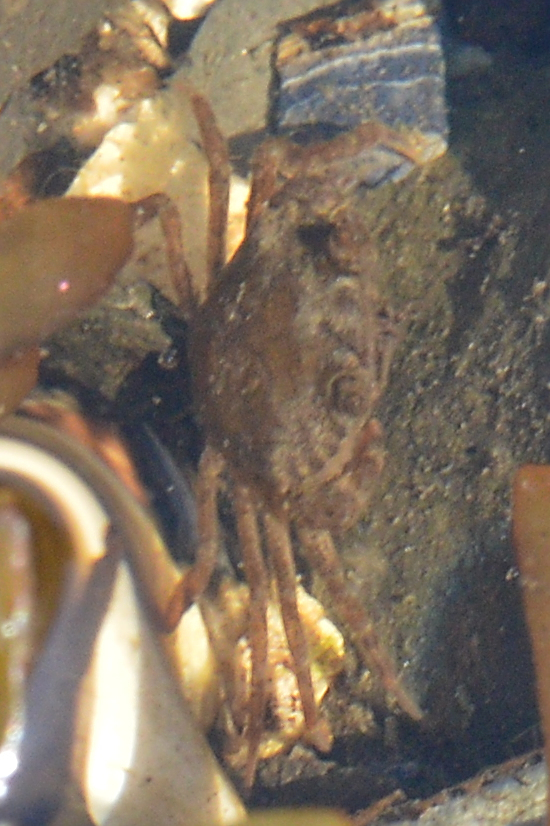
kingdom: Animalia
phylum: Arthropoda
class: Malacostraca
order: Decapoda
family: Carcinidae
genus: Carcinus
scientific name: Carcinus maenas
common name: European green crab
